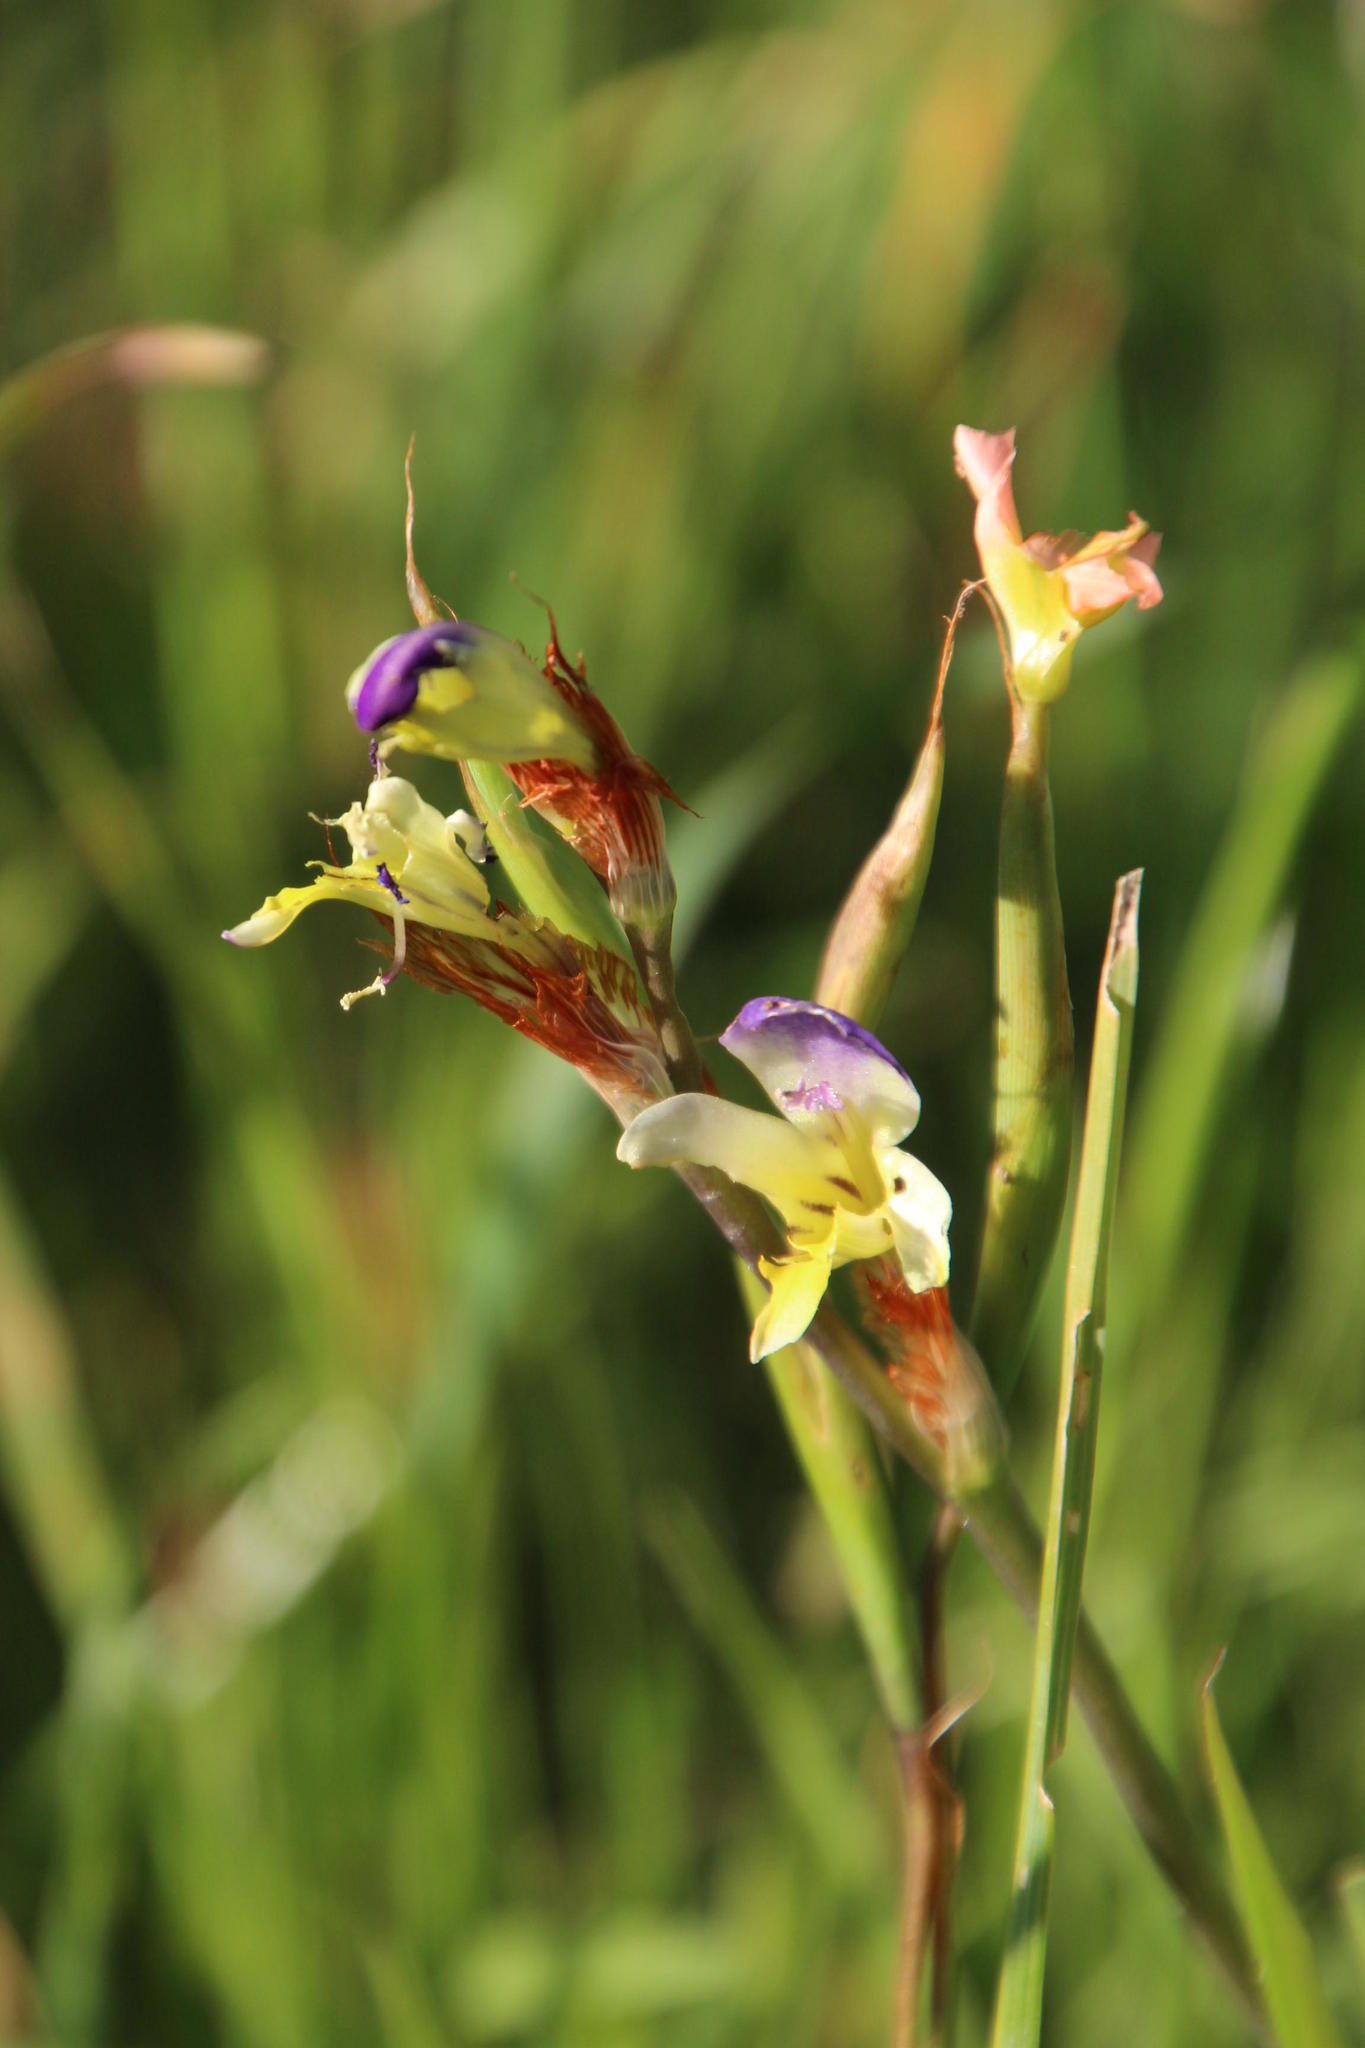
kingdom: Plantae
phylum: Tracheophyta
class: Liliopsida
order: Asparagales
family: Iridaceae
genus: Sparaxis
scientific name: Sparaxis villosa
